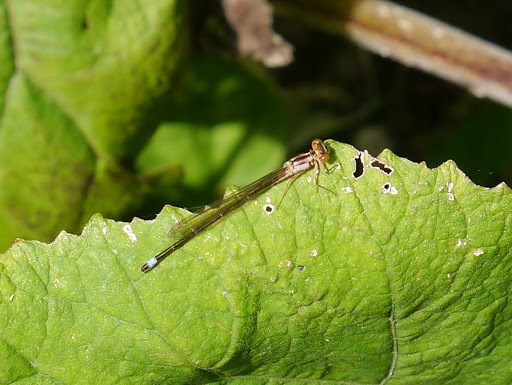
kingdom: Animalia
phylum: Arthropoda
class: Insecta
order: Odonata
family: Coenagrionidae
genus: Ischnura
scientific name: Ischnura cervula
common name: Pacific forktail
